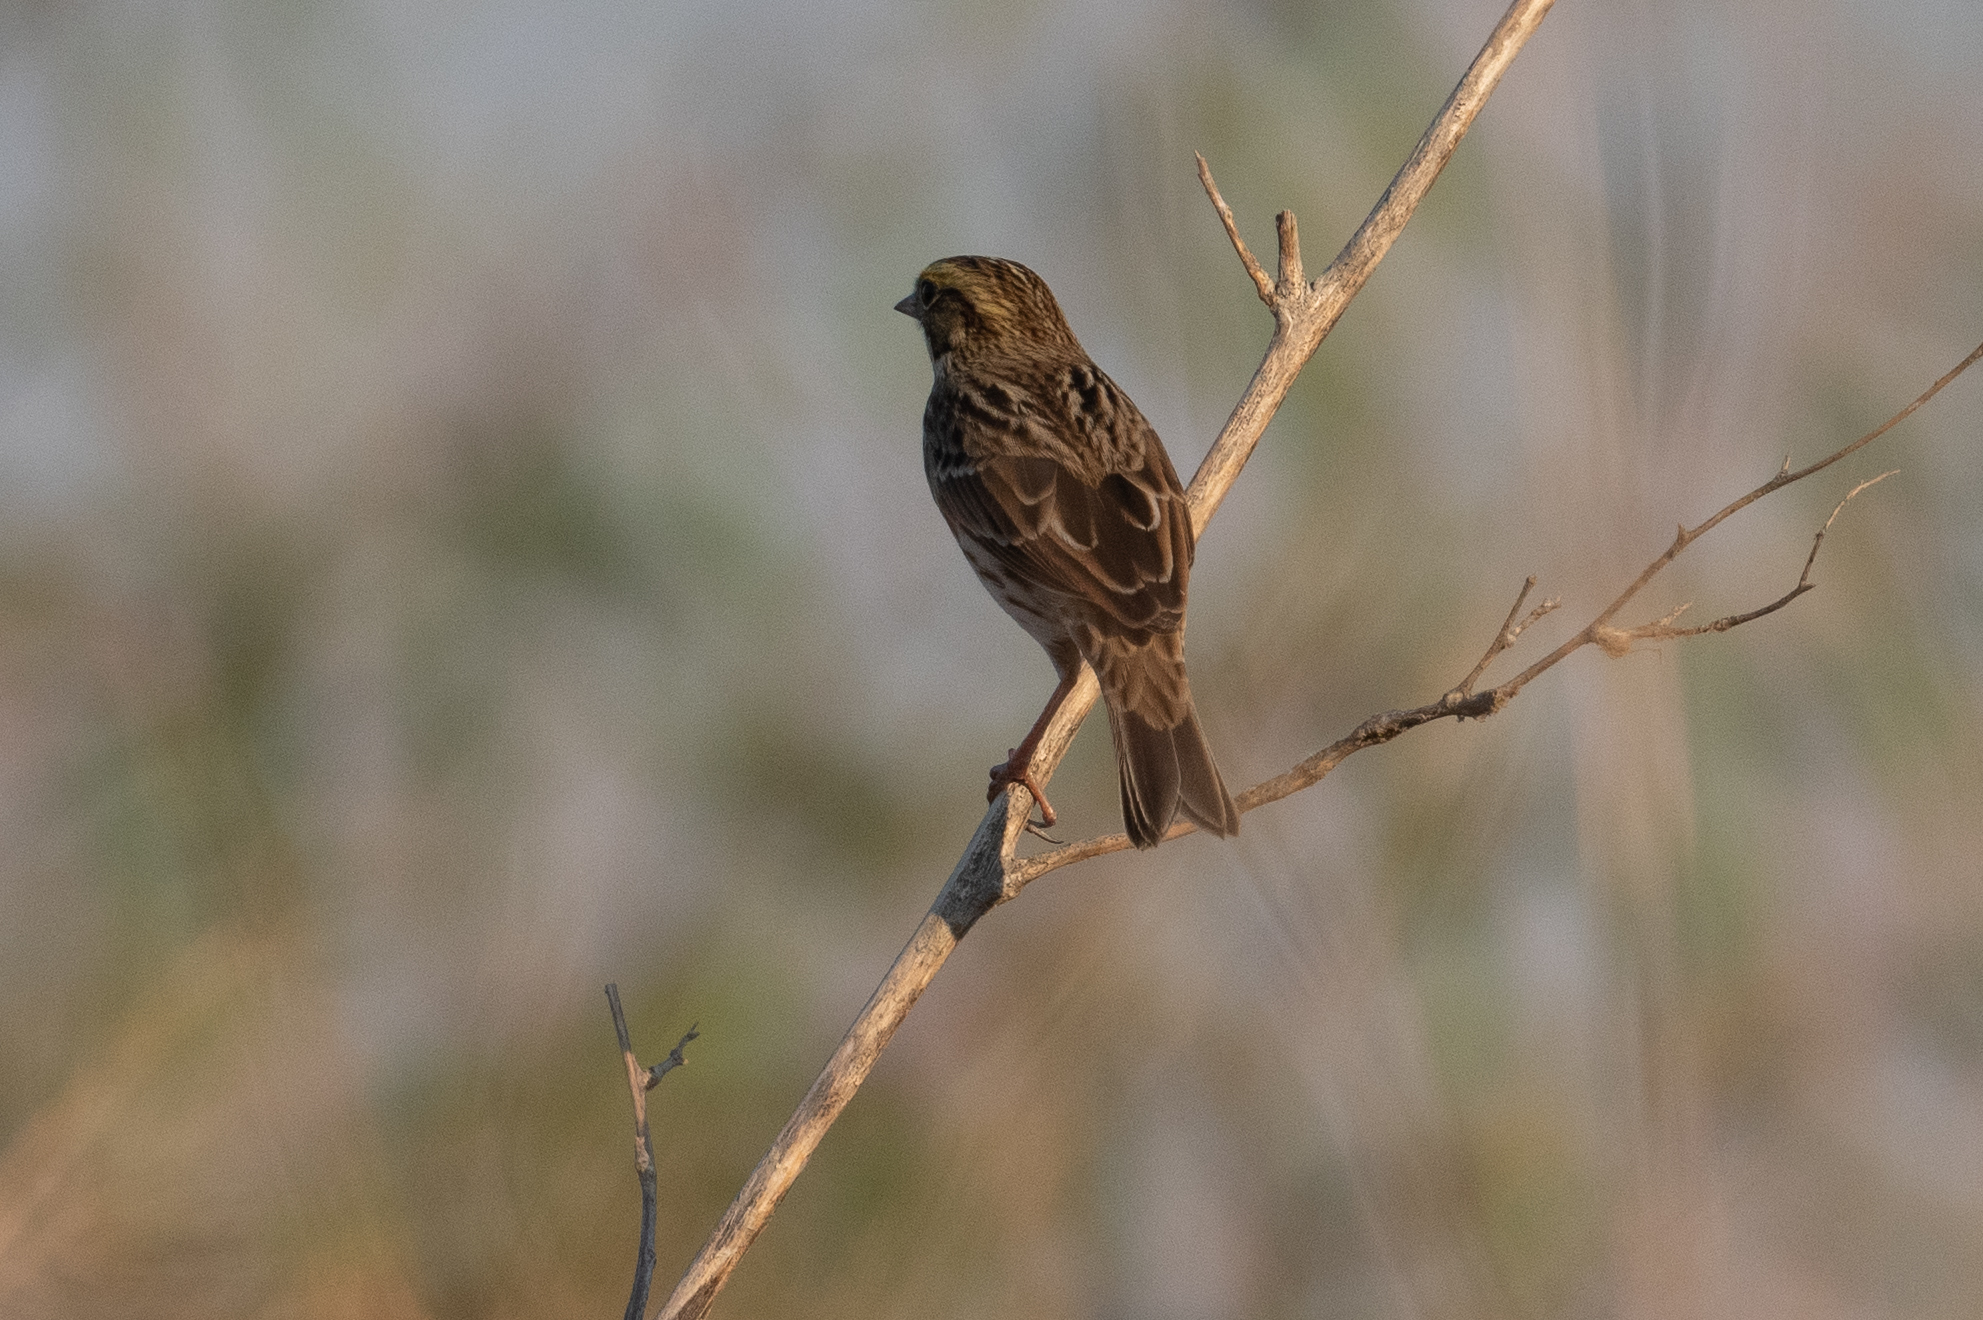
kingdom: Animalia
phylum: Chordata
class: Aves
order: Passeriformes
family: Passerellidae
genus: Passerculus
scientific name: Passerculus sandwichensis
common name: Savannah sparrow
